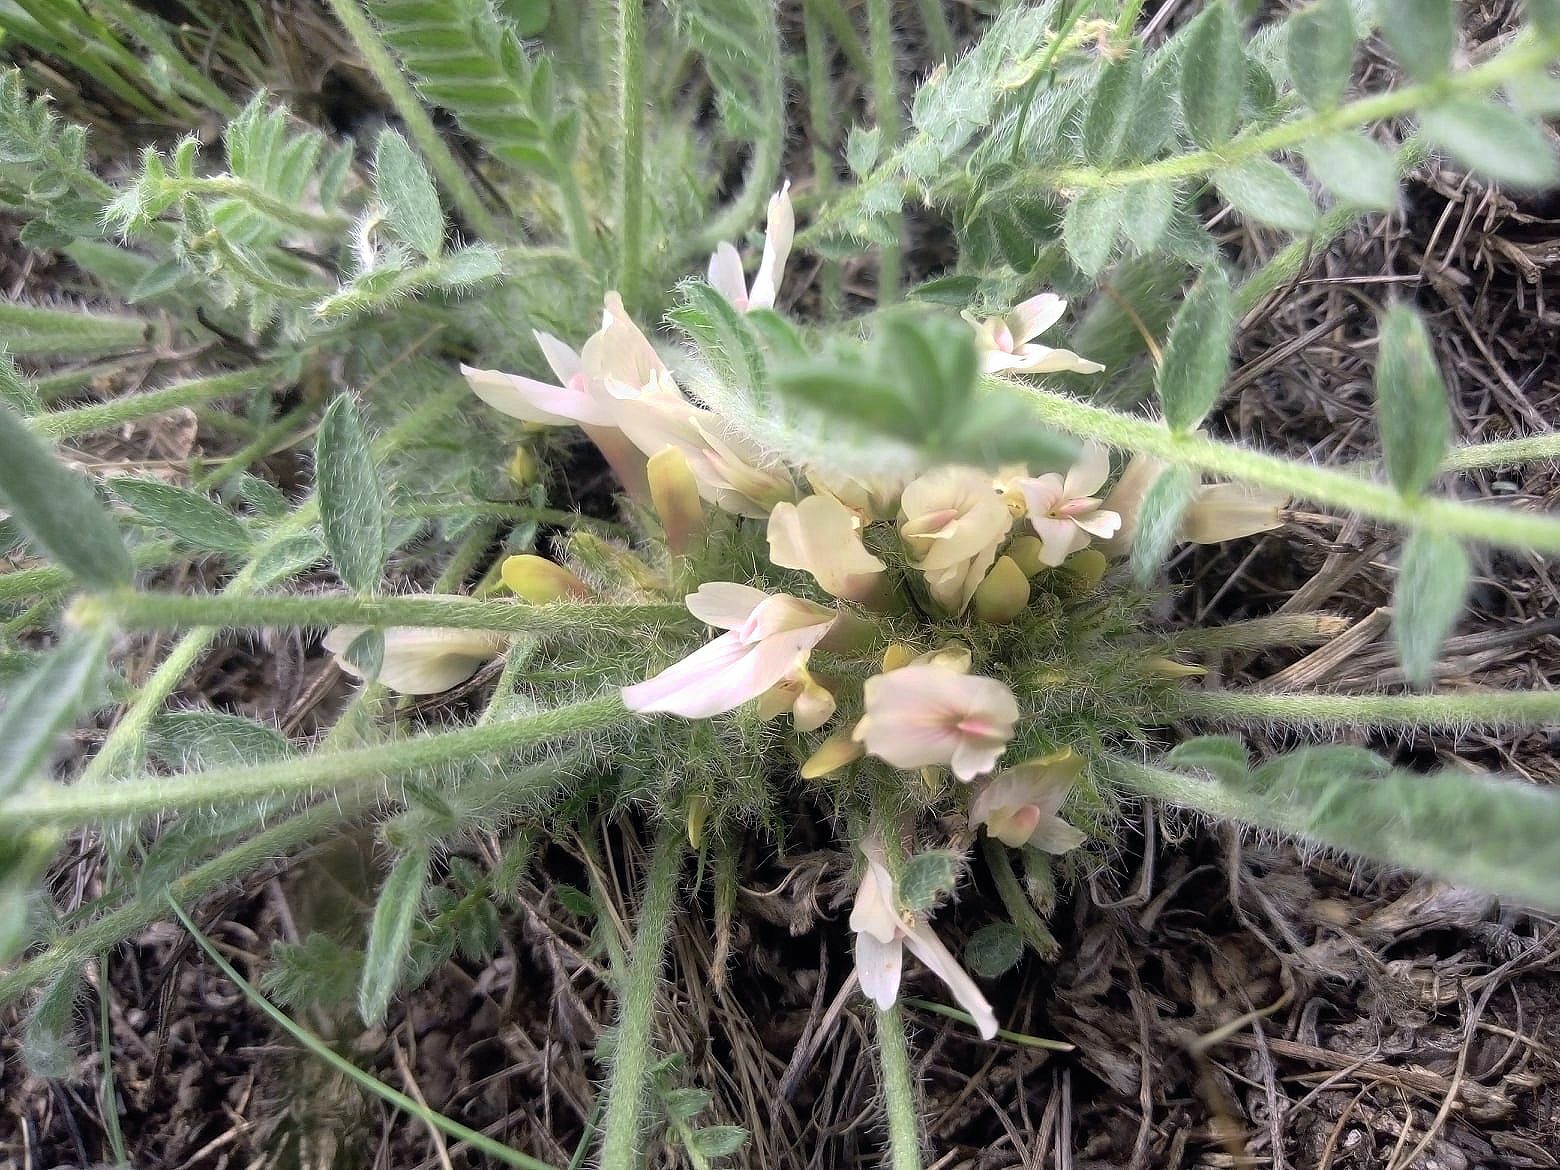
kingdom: Plantae
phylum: Tracheophyta
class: Magnoliopsida
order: Fabales
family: Fabaceae
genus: Astragalus
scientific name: Astragalus dolichophyllus
